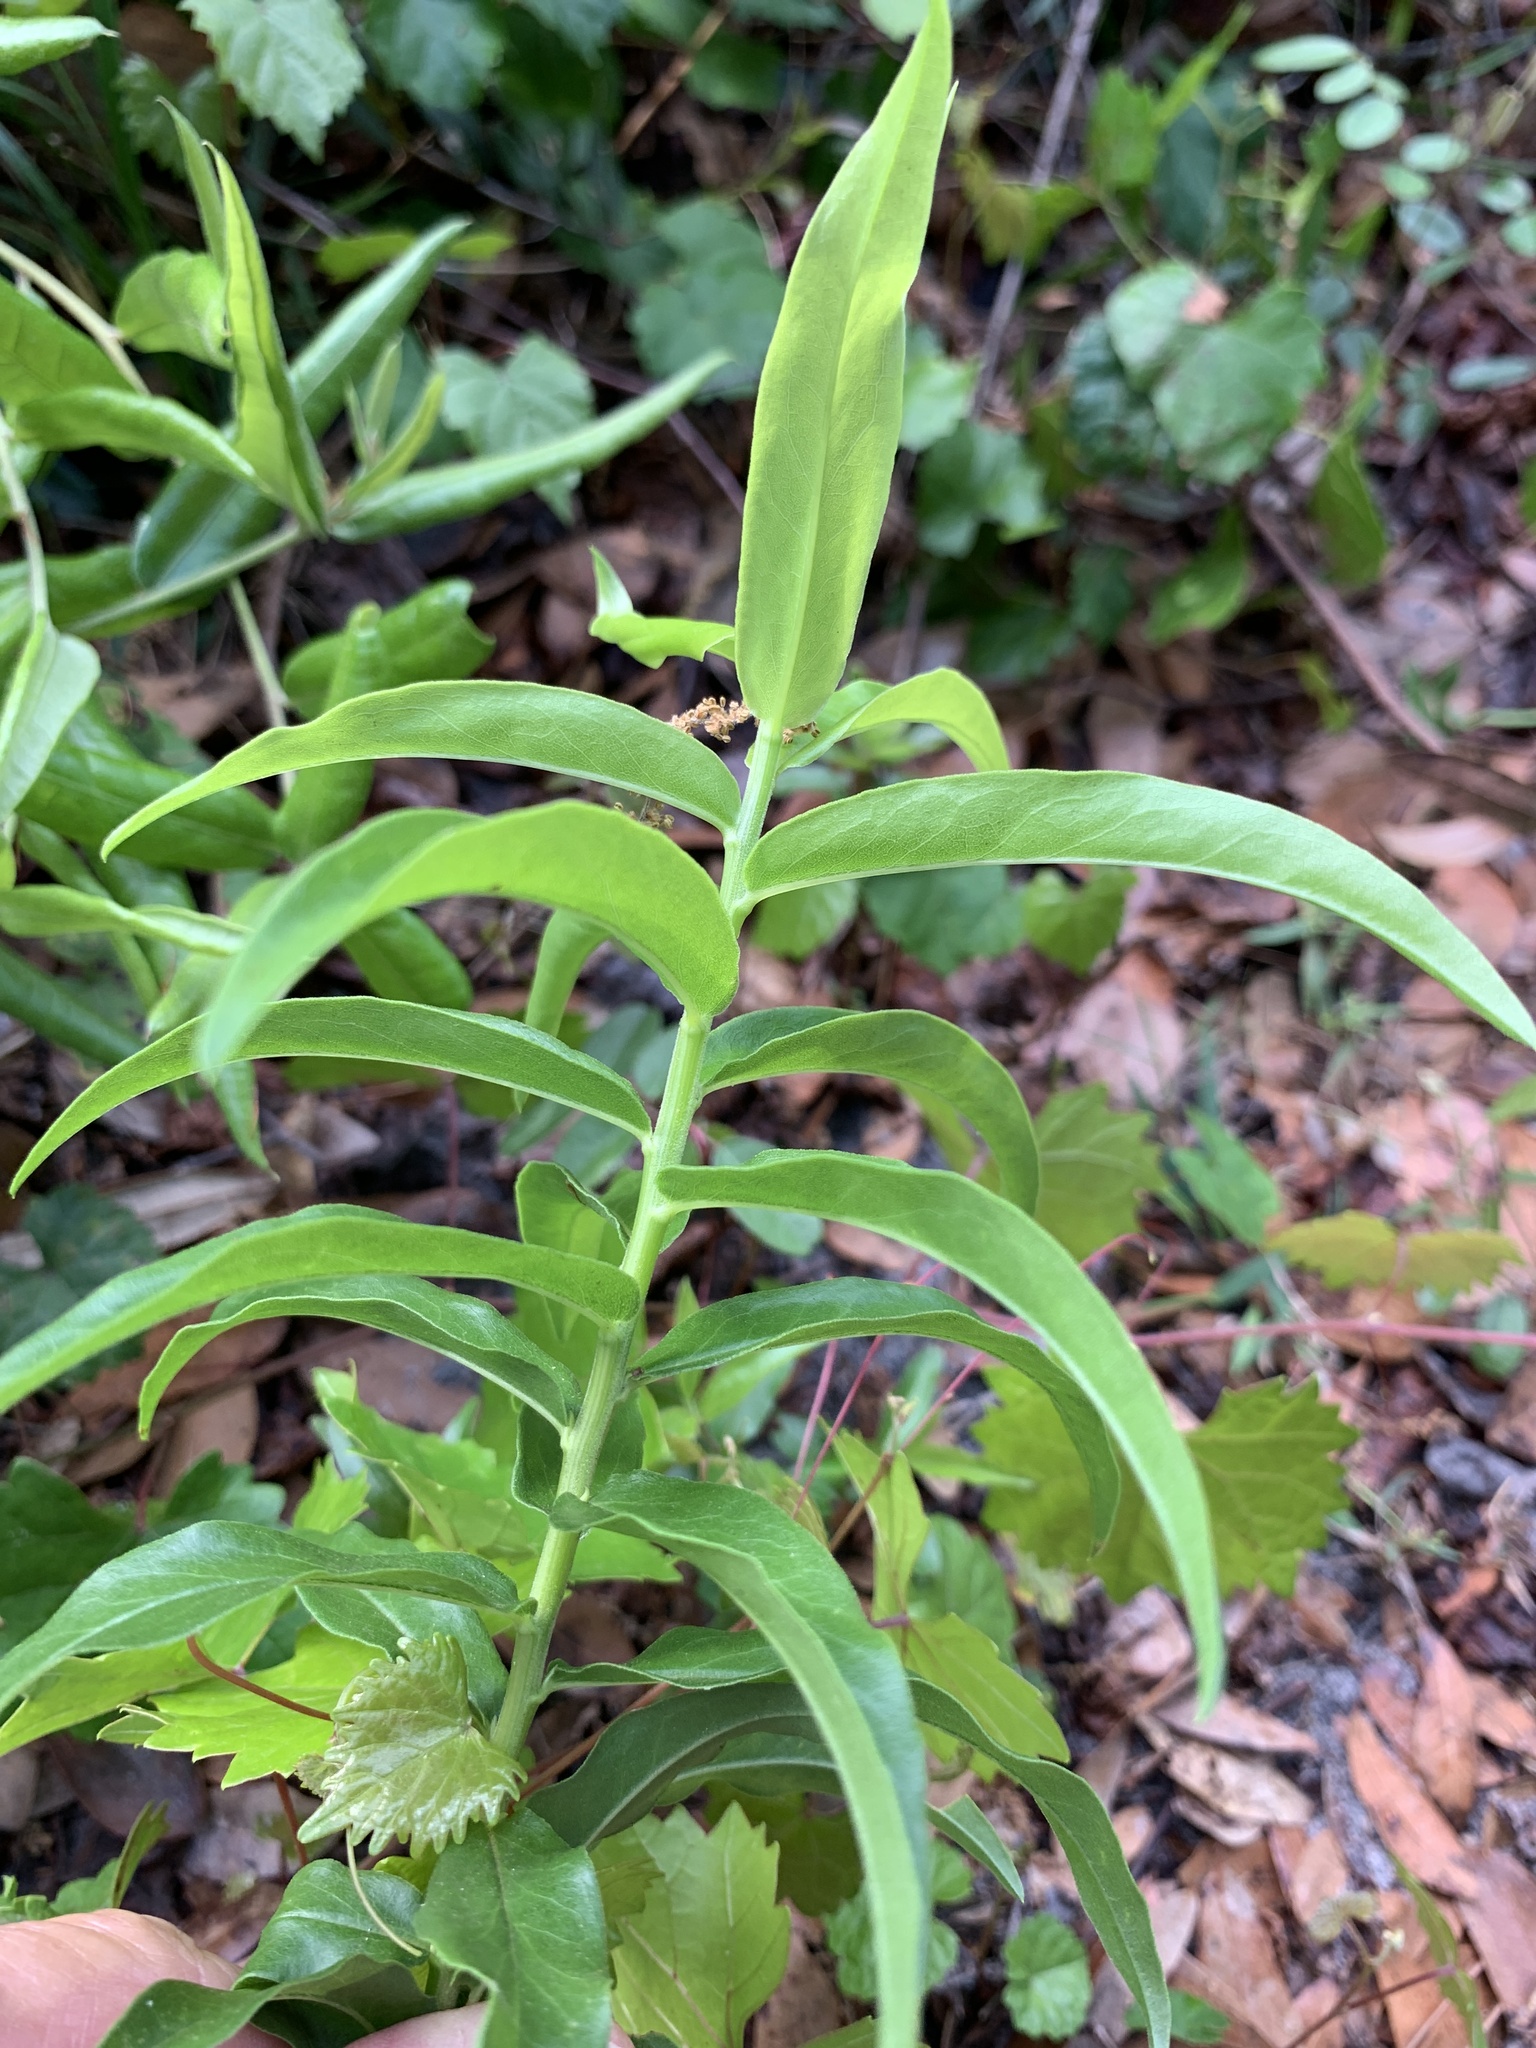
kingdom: Plantae
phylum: Tracheophyta
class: Magnoliopsida
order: Asterales
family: Asteraceae
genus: Solidago
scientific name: Solidago chapmanii
